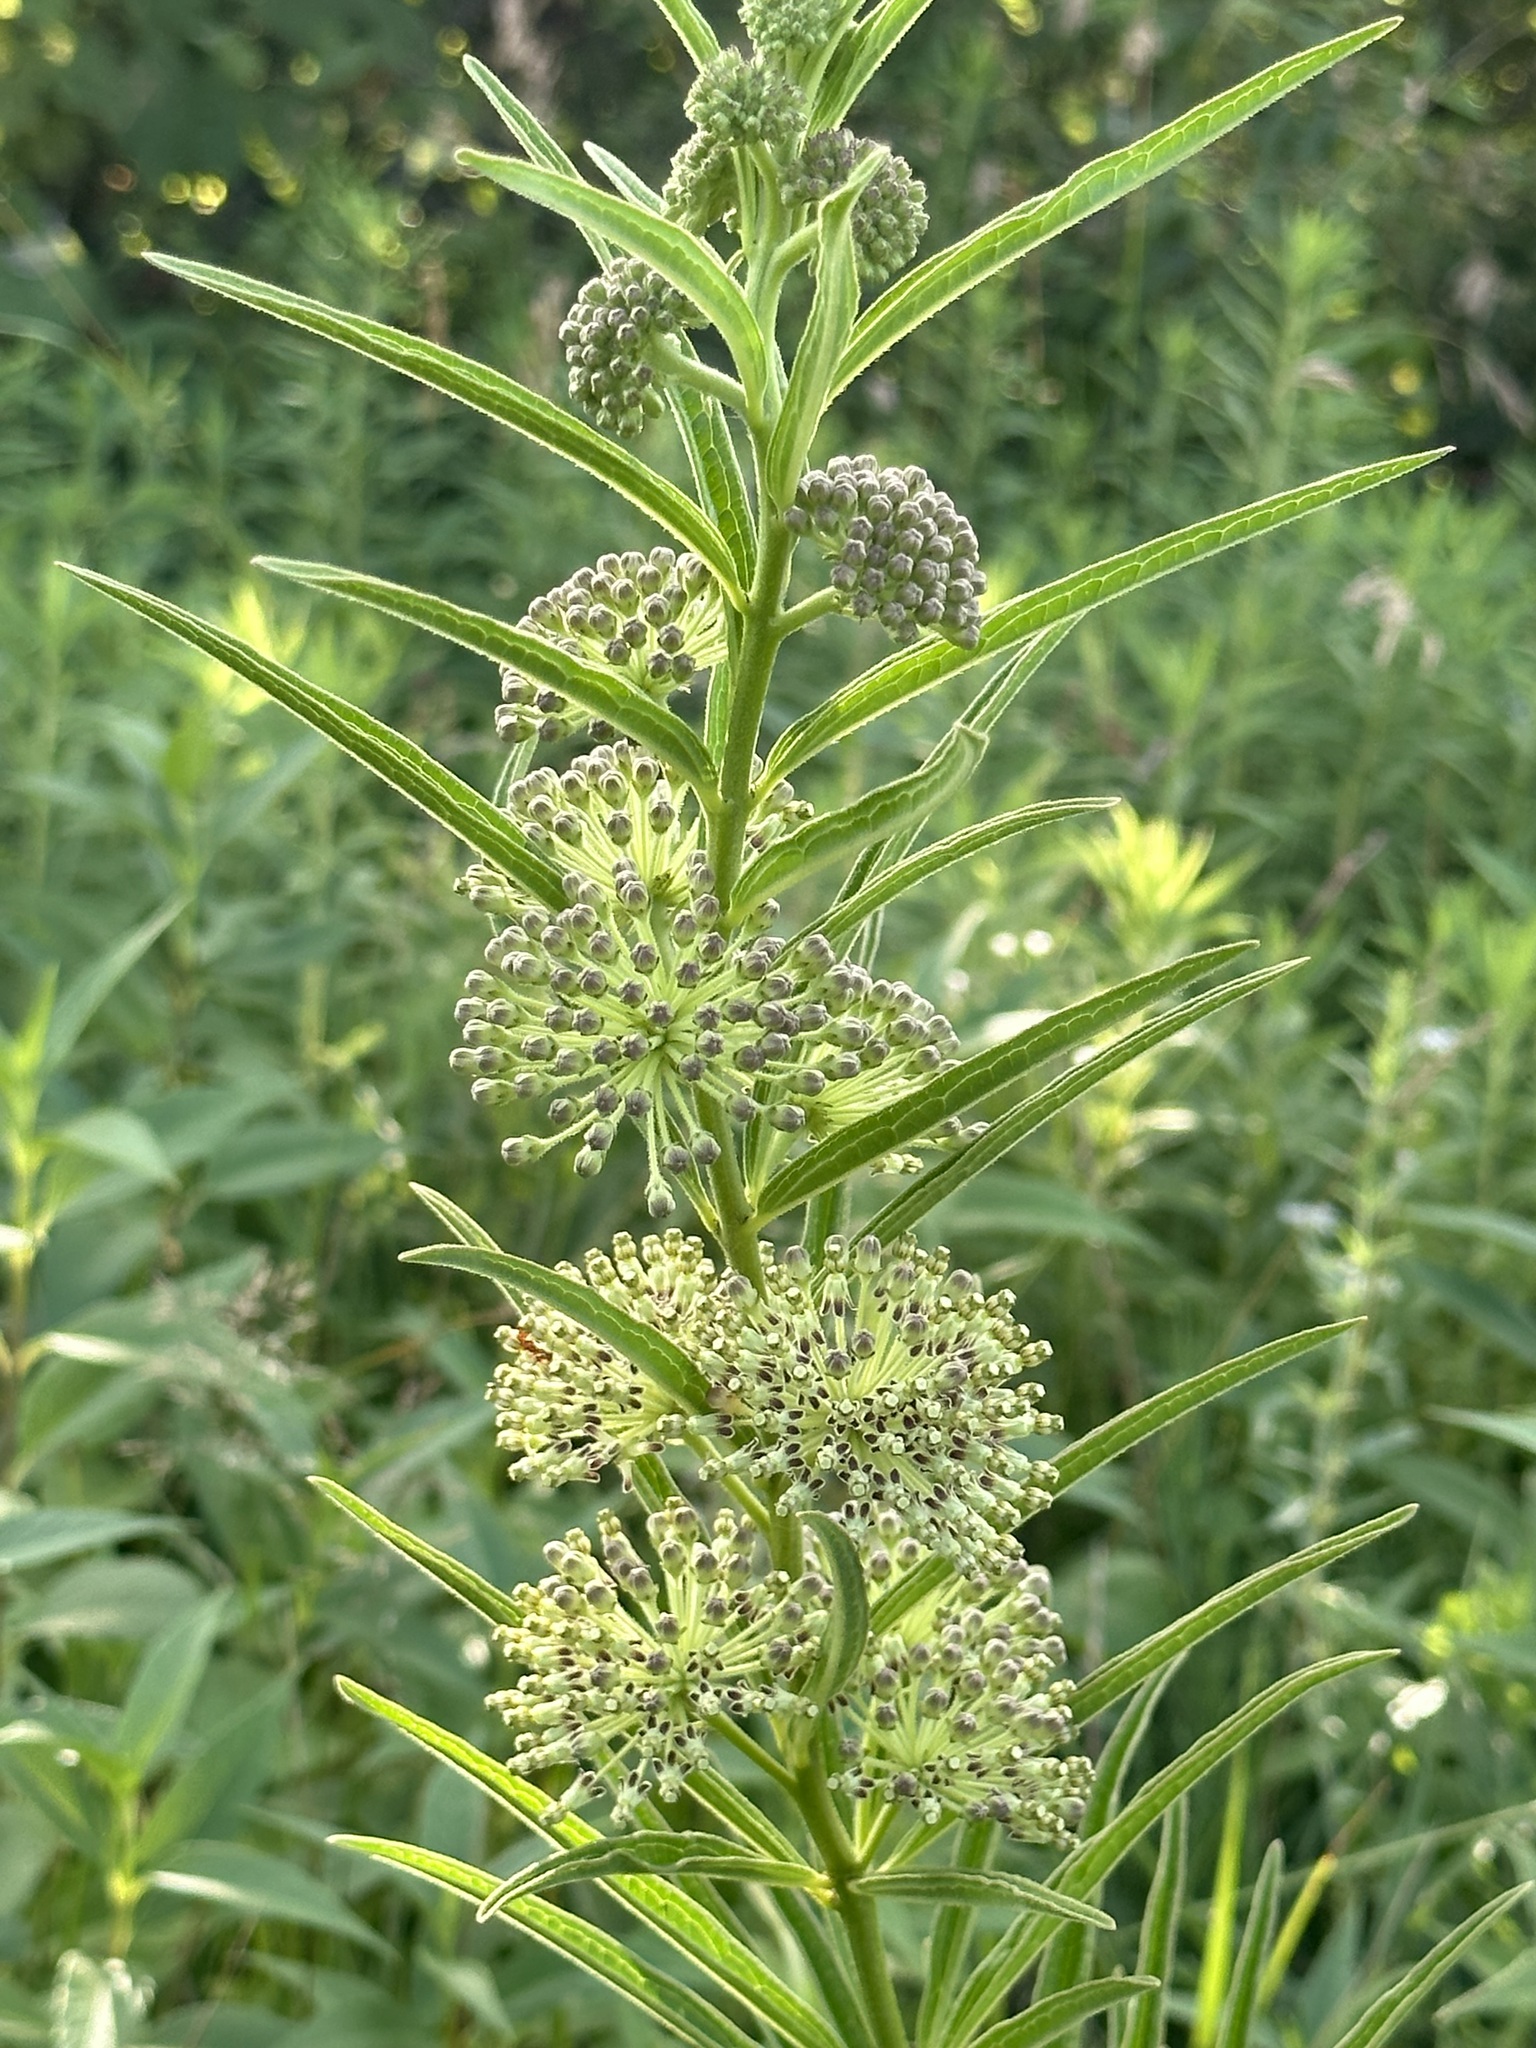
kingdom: Plantae
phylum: Tracheophyta
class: Magnoliopsida
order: Gentianales
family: Apocynaceae
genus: Asclepias
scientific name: Asclepias hirtella
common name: Prairie milkweed
